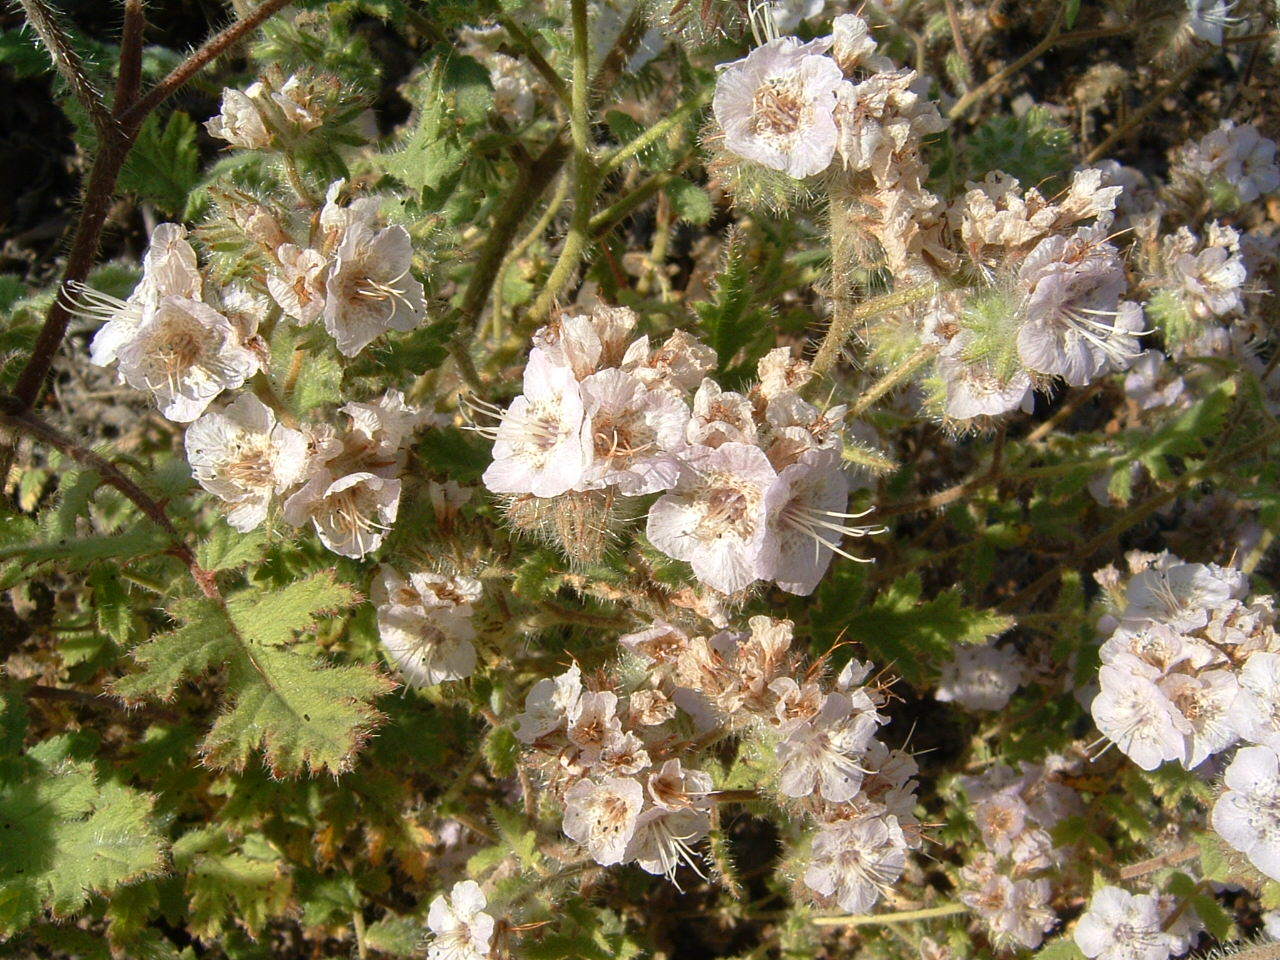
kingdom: Plantae
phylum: Tracheophyta
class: Magnoliopsida
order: Boraginales
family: Hydrophyllaceae
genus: Phacelia
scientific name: Phacelia cicutaria
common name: Caterpillar phacelia
